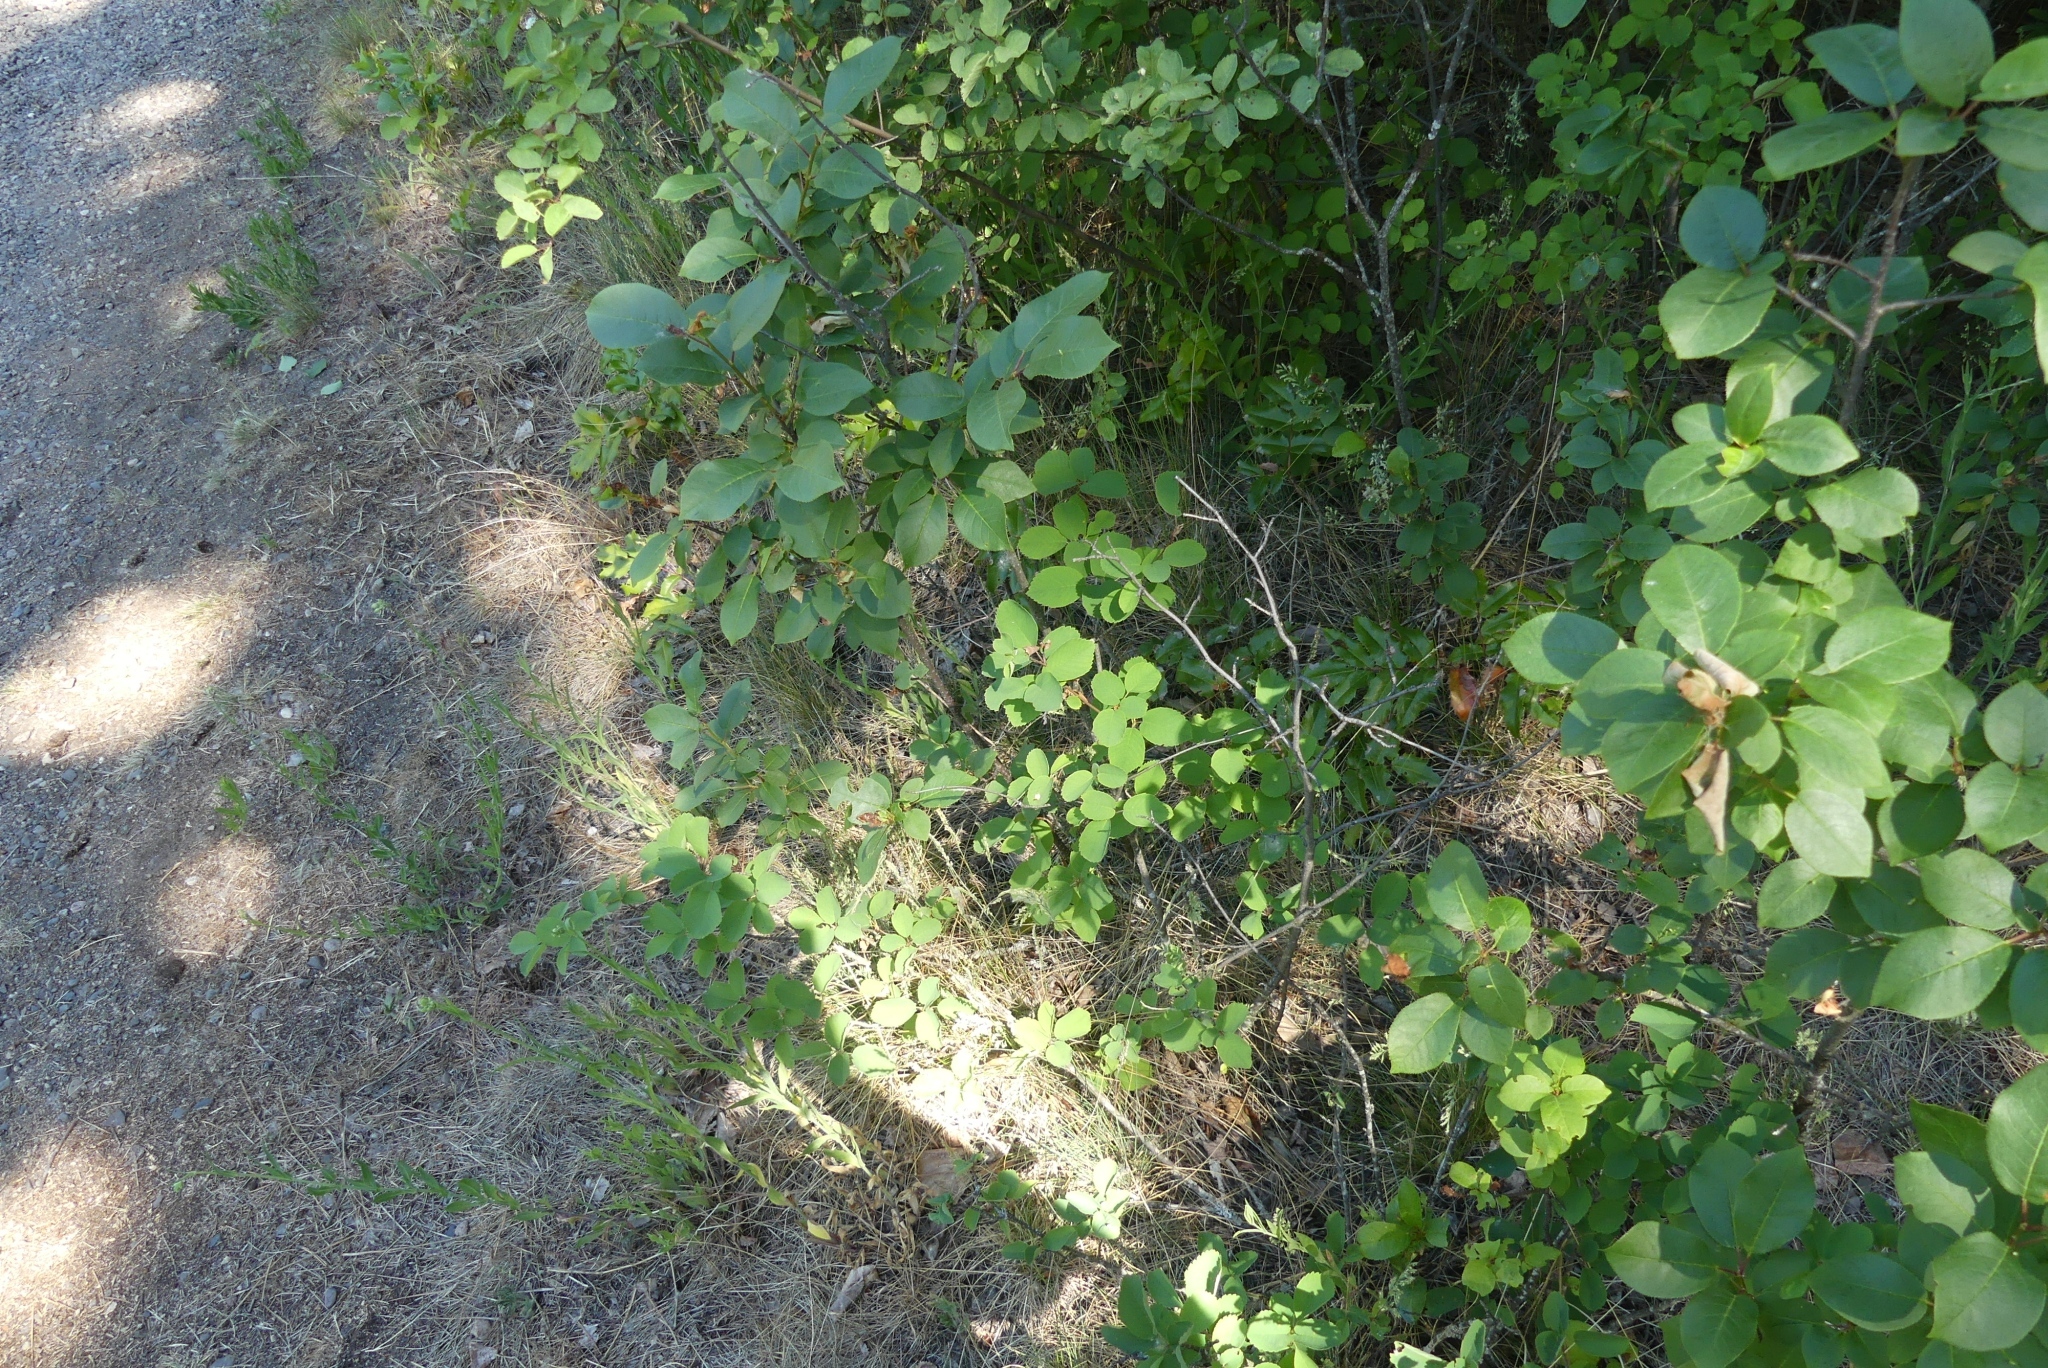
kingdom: Plantae
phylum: Tracheophyta
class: Magnoliopsida
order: Rosales
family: Rosaceae
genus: Amelanchier
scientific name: Amelanchier alnifolia
